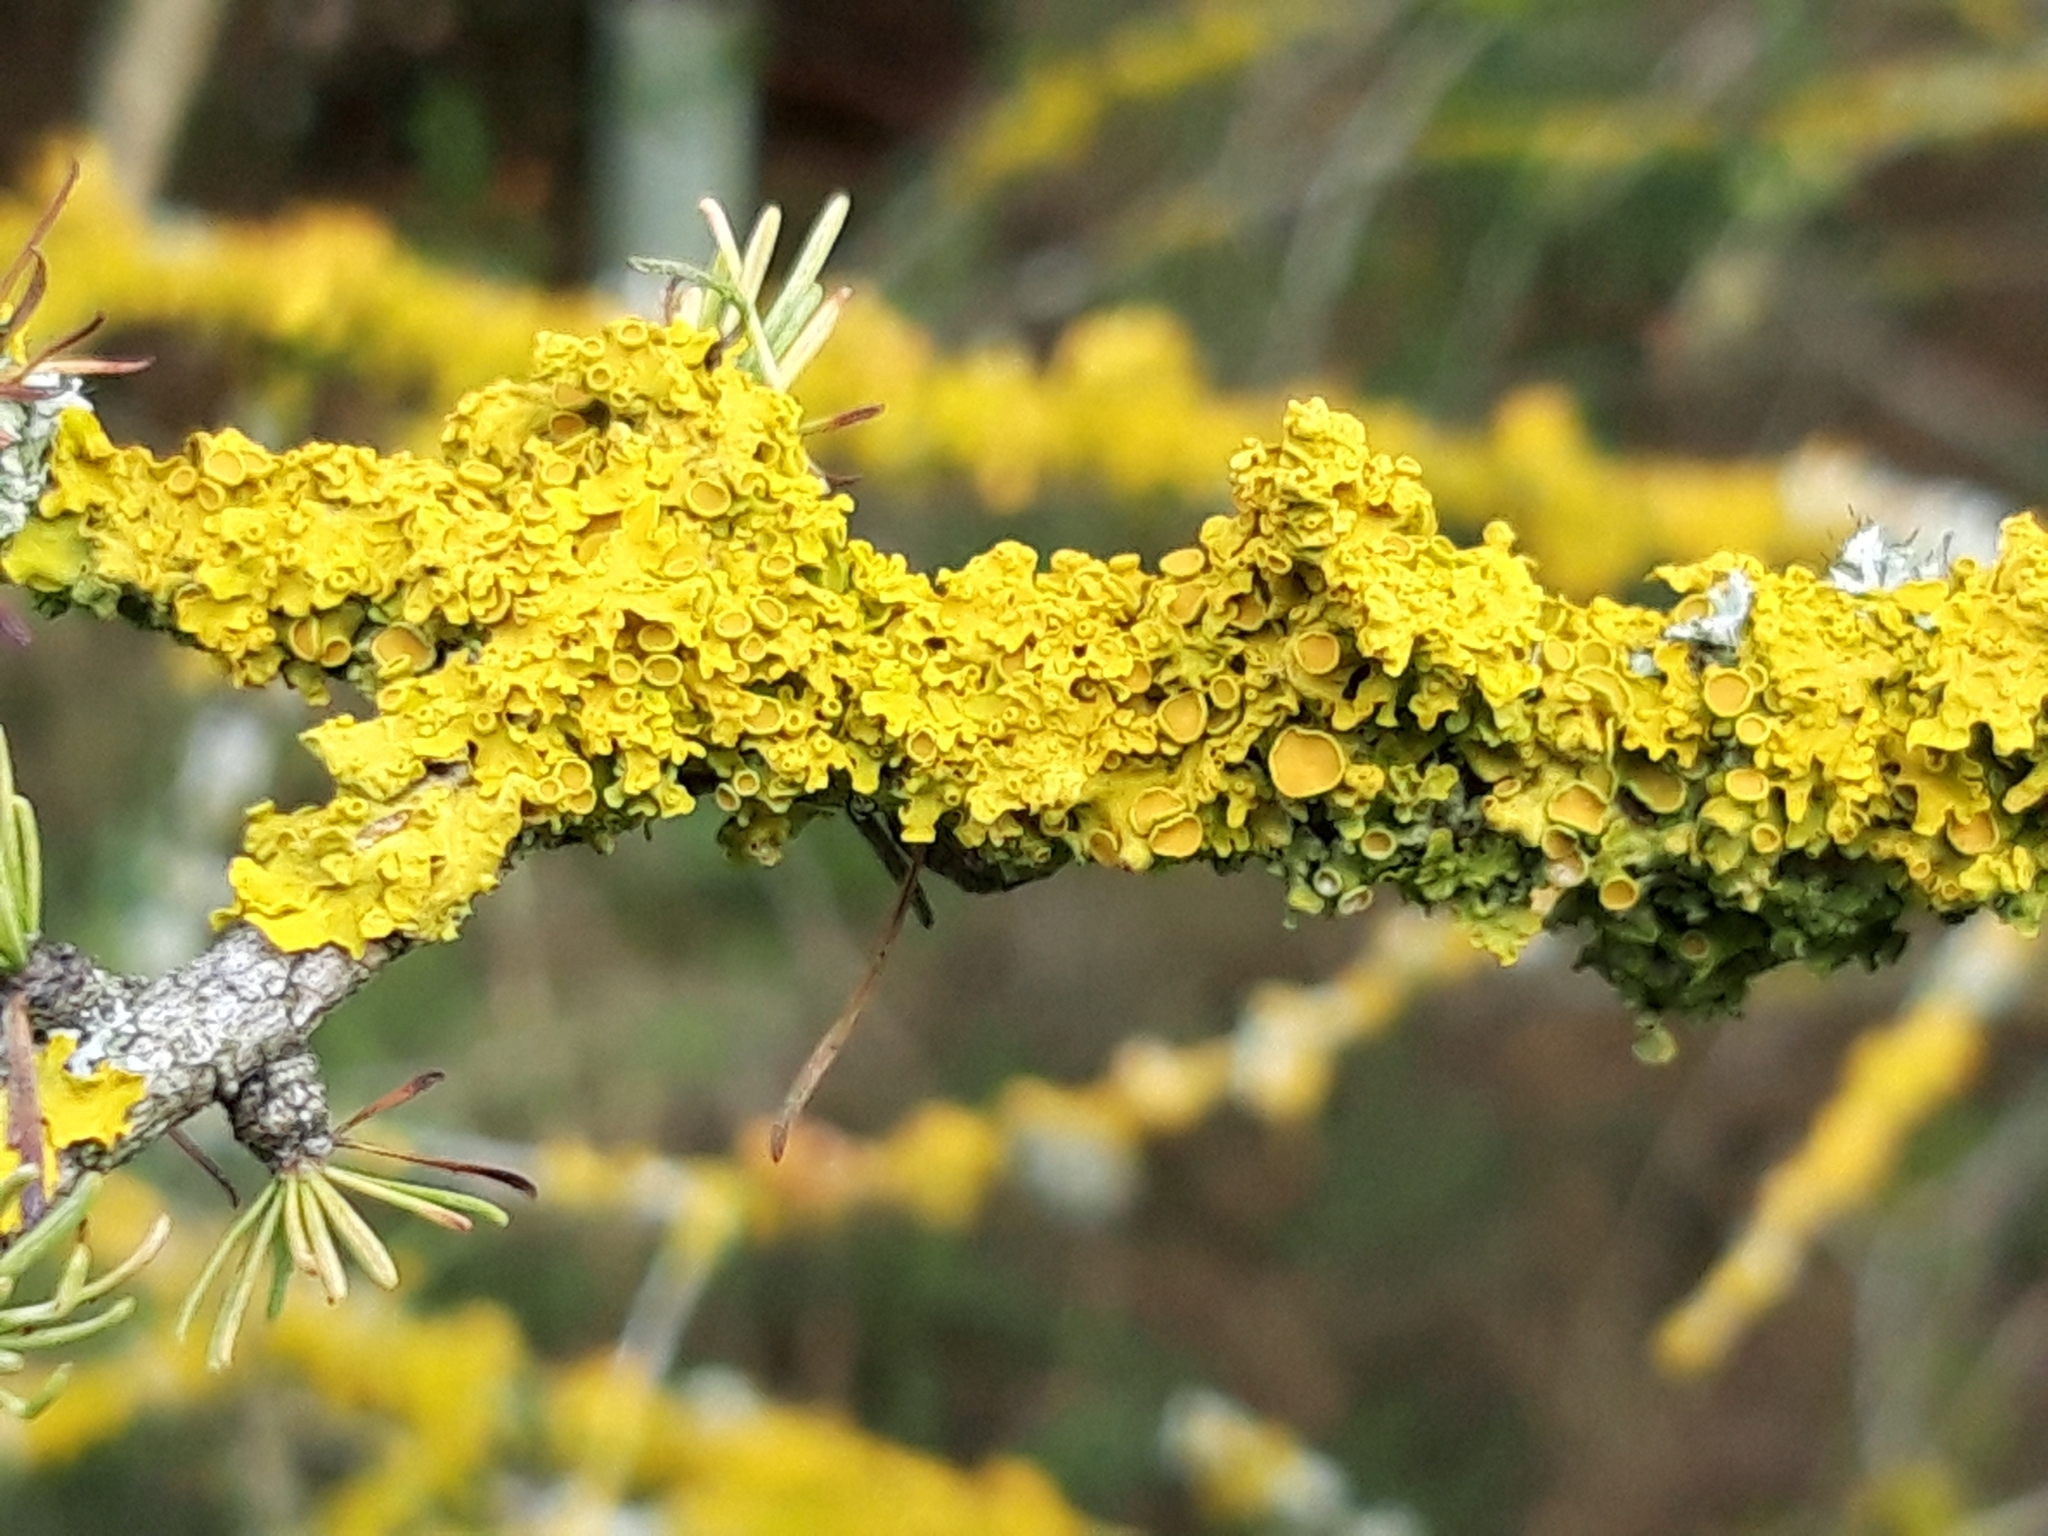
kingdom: Fungi
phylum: Ascomycota
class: Lecanoromycetes
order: Teloschistales
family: Teloschistaceae
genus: Xanthoria
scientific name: Xanthoria parietina
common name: Common orange lichen
